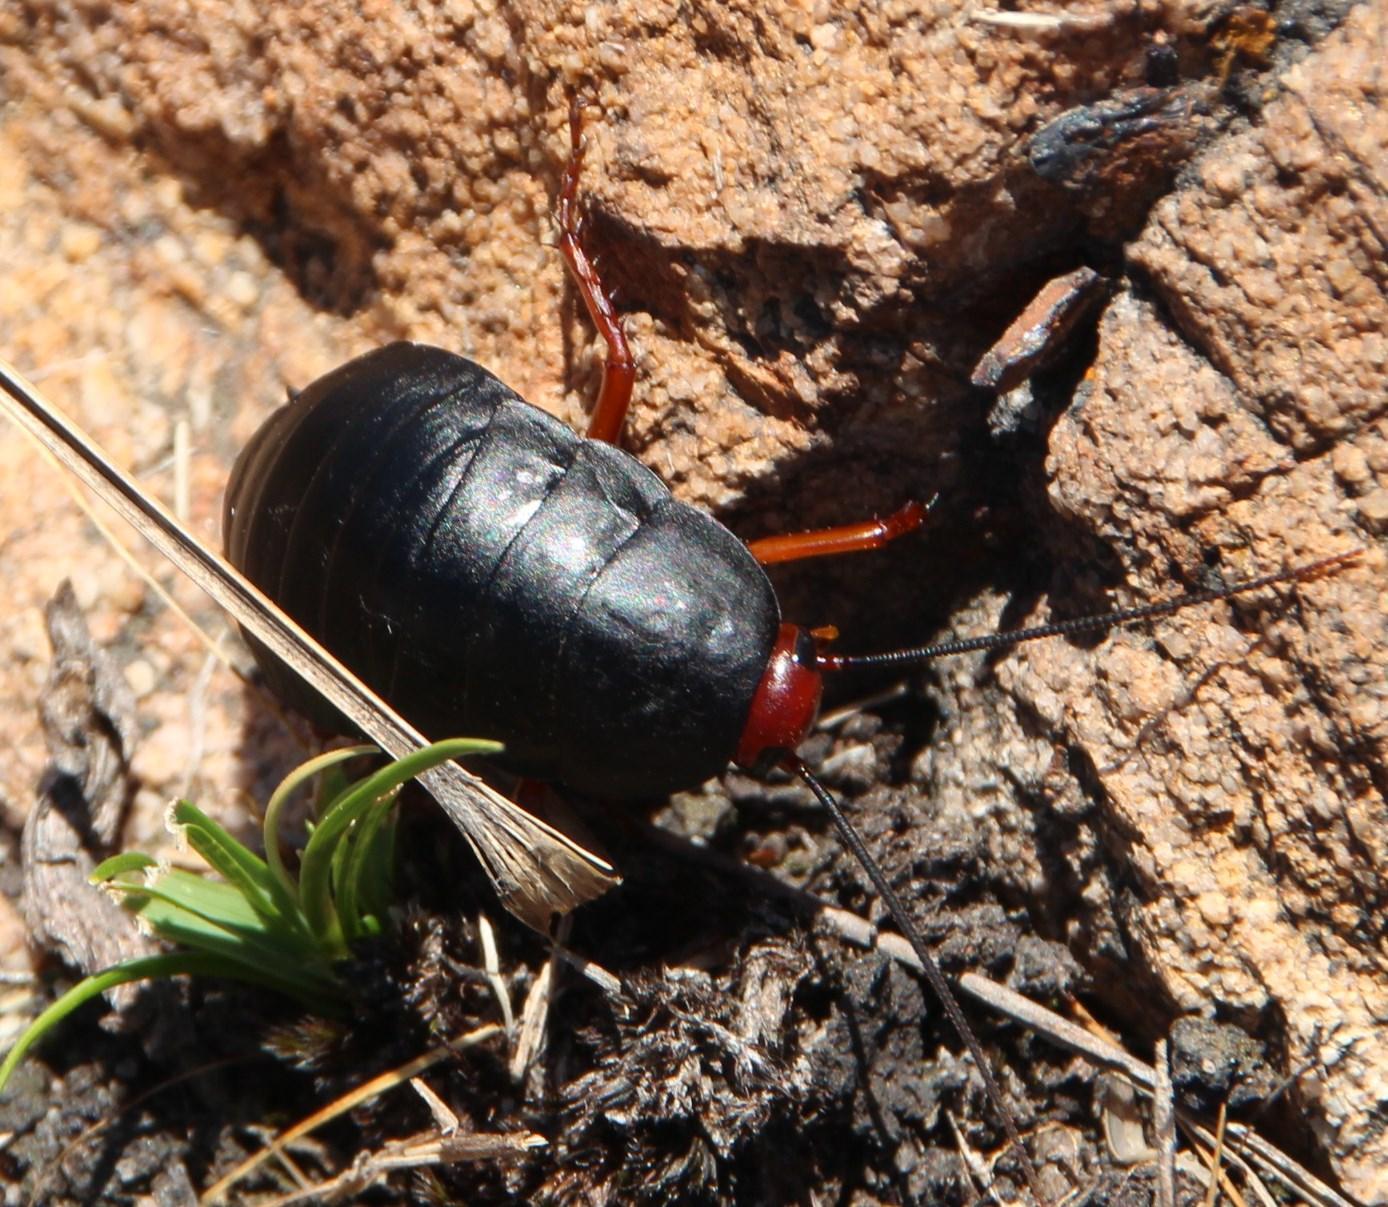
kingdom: Animalia
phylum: Arthropoda
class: Insecta
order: Blattodea
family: Blattidae
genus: Deropeltis
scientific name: Deropeltis erythrocephala
